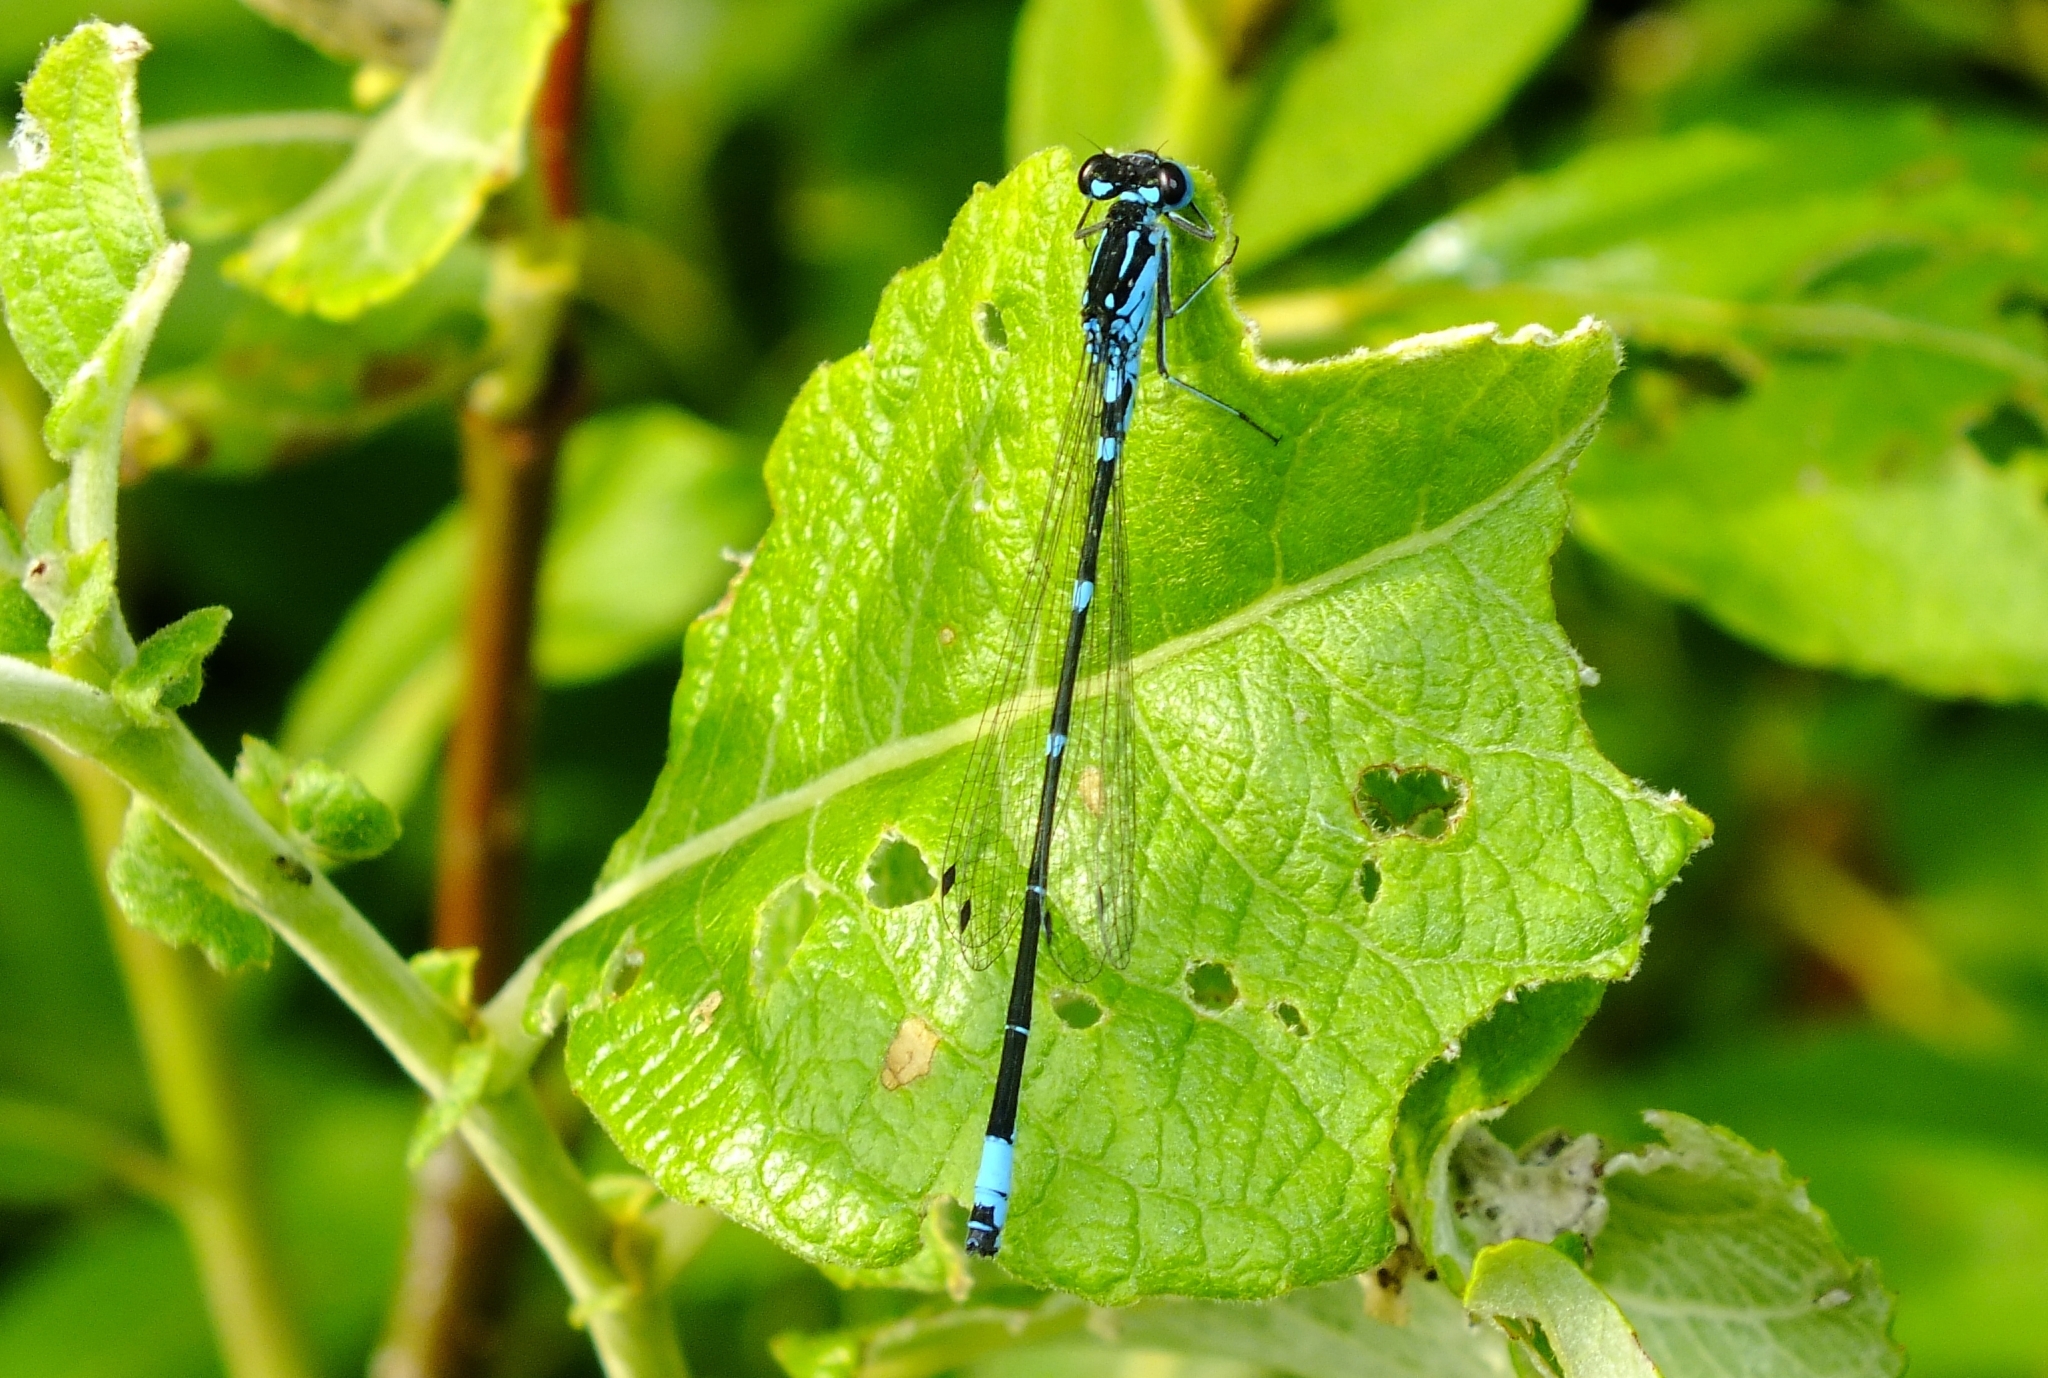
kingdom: Animalia
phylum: Arthropoda
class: Insecta
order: Odonata
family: Coenagrionidae
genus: Coenagrion
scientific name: Coenagrion pulchellum
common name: Variable bluet
